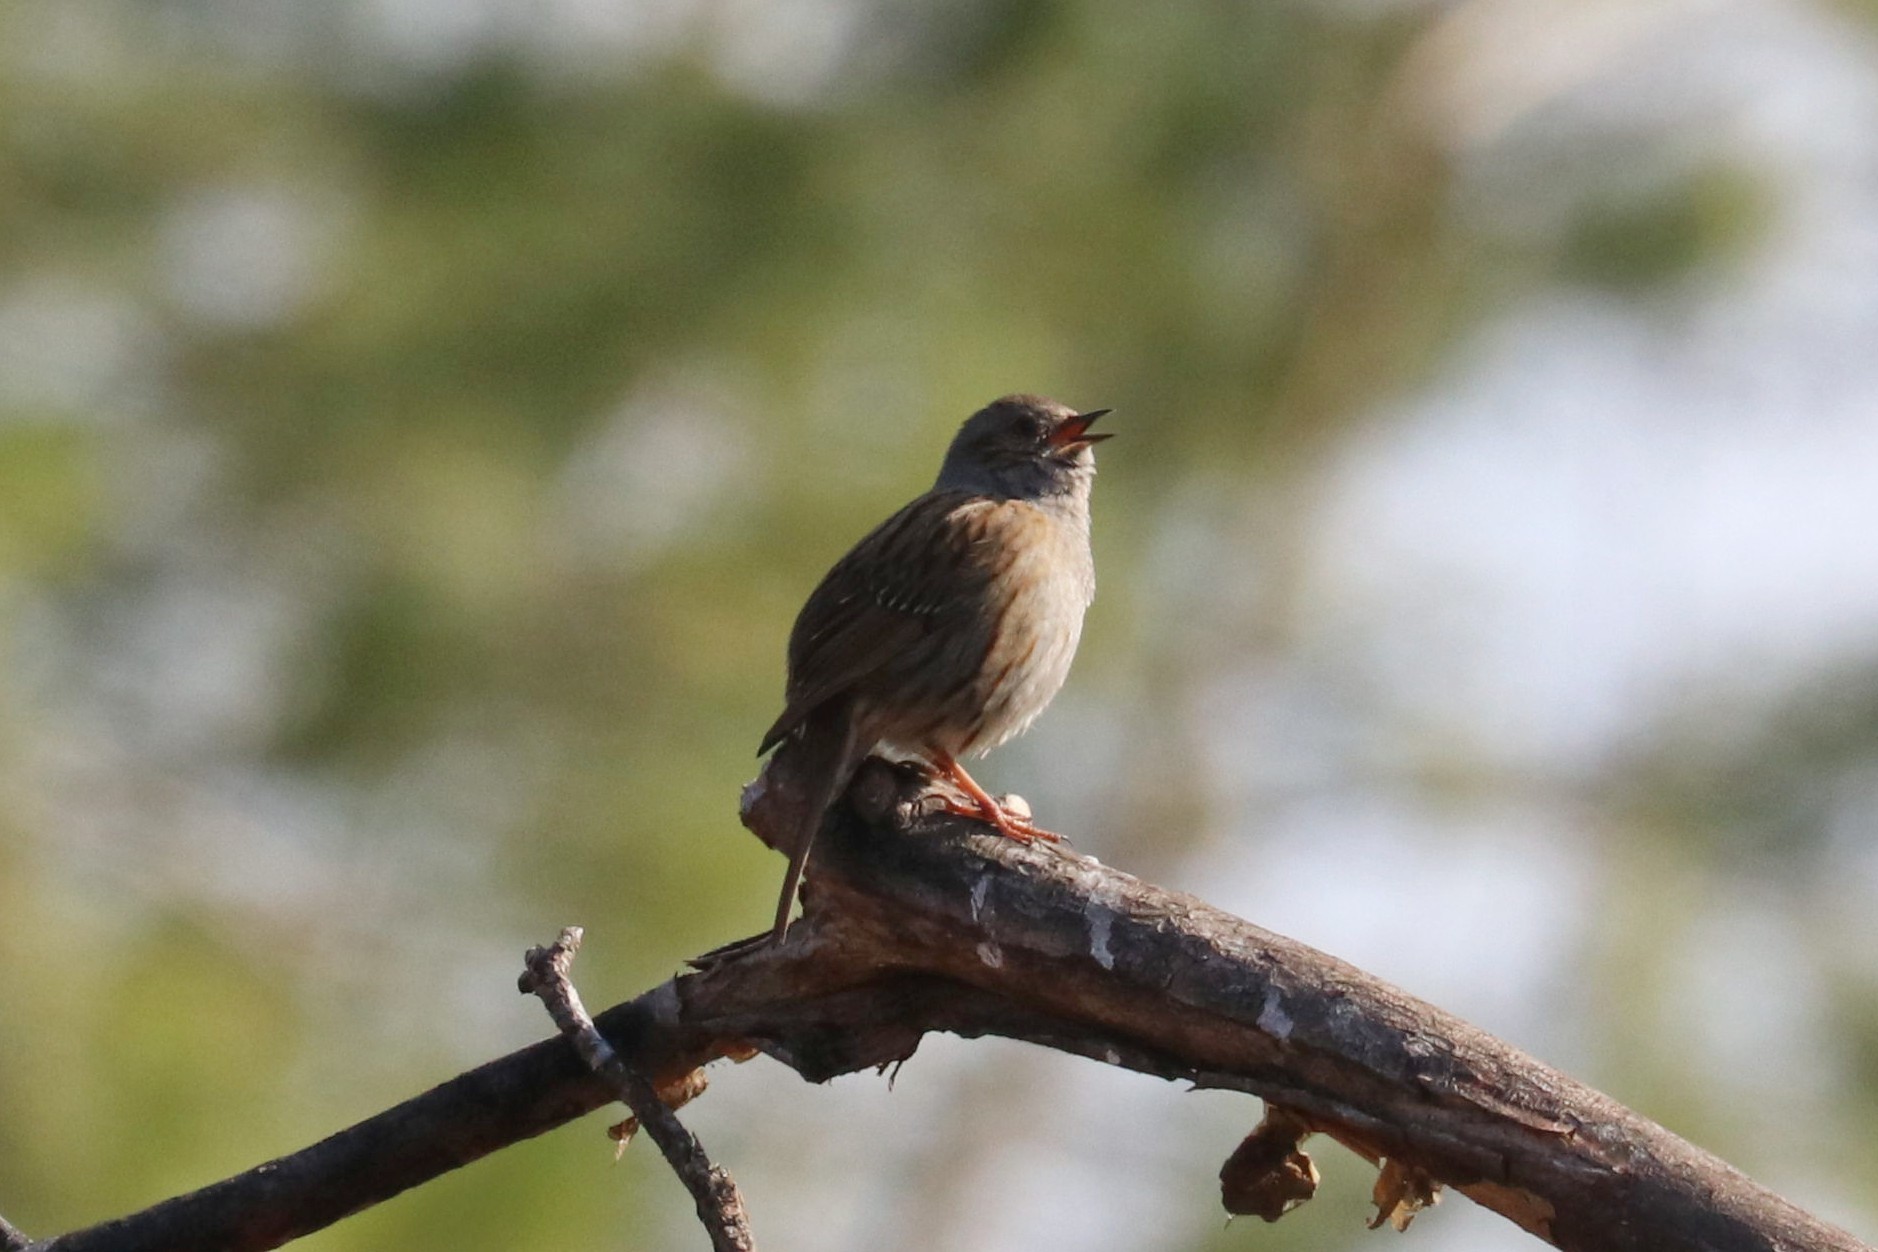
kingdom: Animalia
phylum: Chordata
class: Aves
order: Passeriformes
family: Prunellidae
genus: Prunella
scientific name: Prunella modularis
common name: Dunnock
